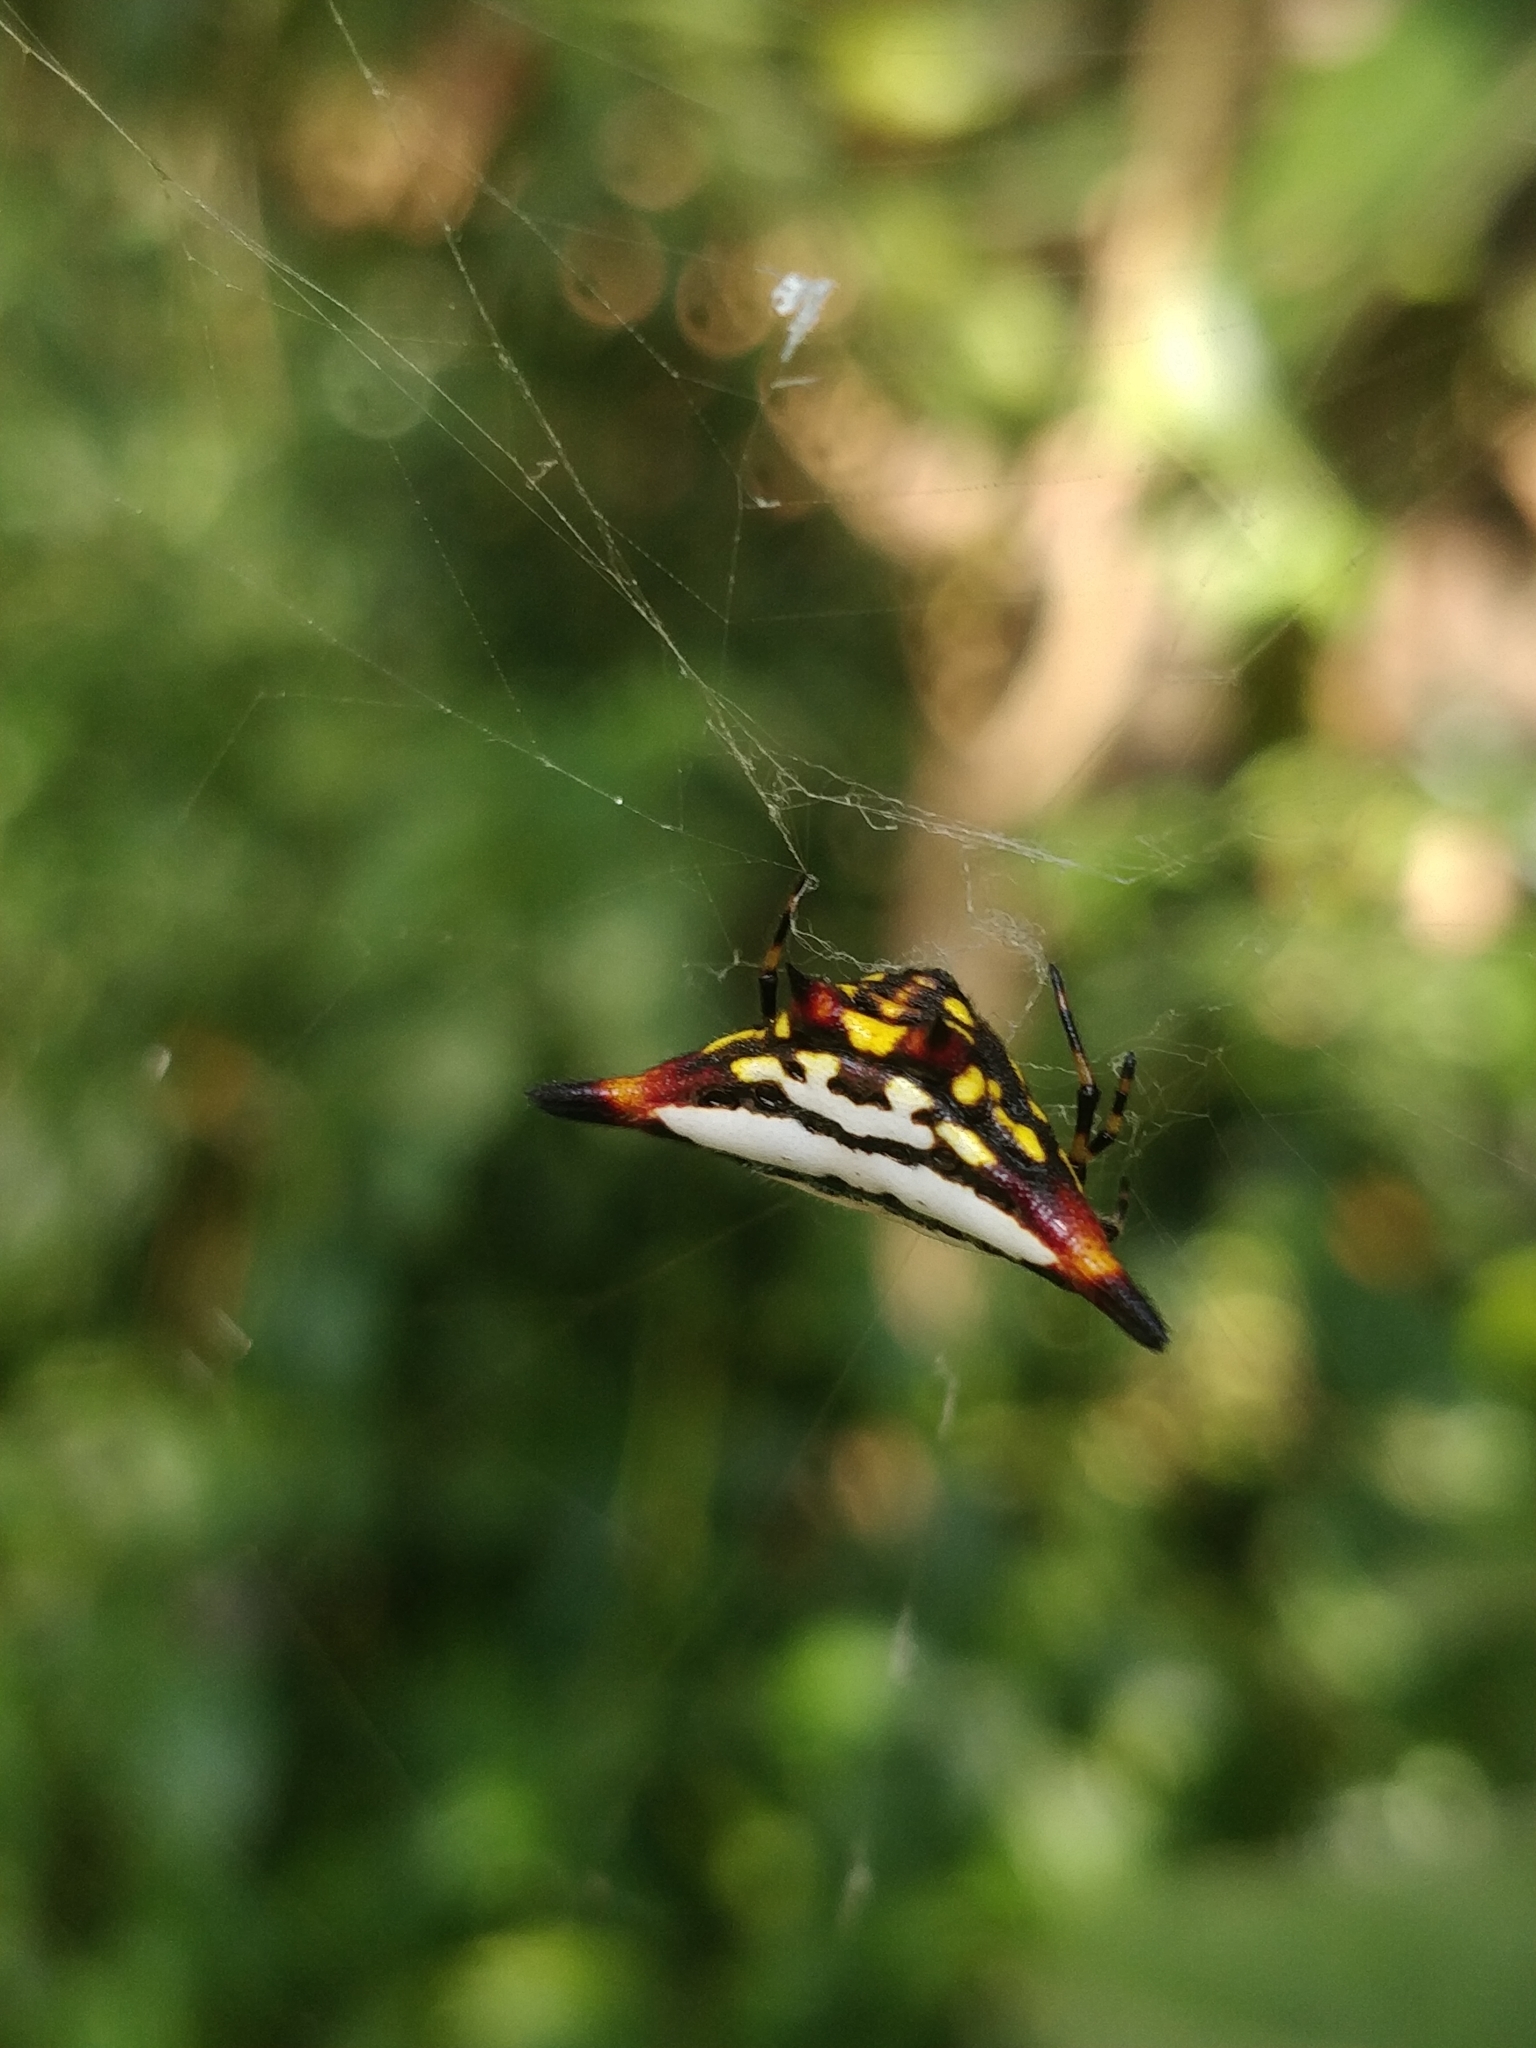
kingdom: Animalia
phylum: Arthropoda
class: Arachnida
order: Araneae
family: Araneidae
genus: Gasteracantha
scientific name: Gasteracantha geminata
